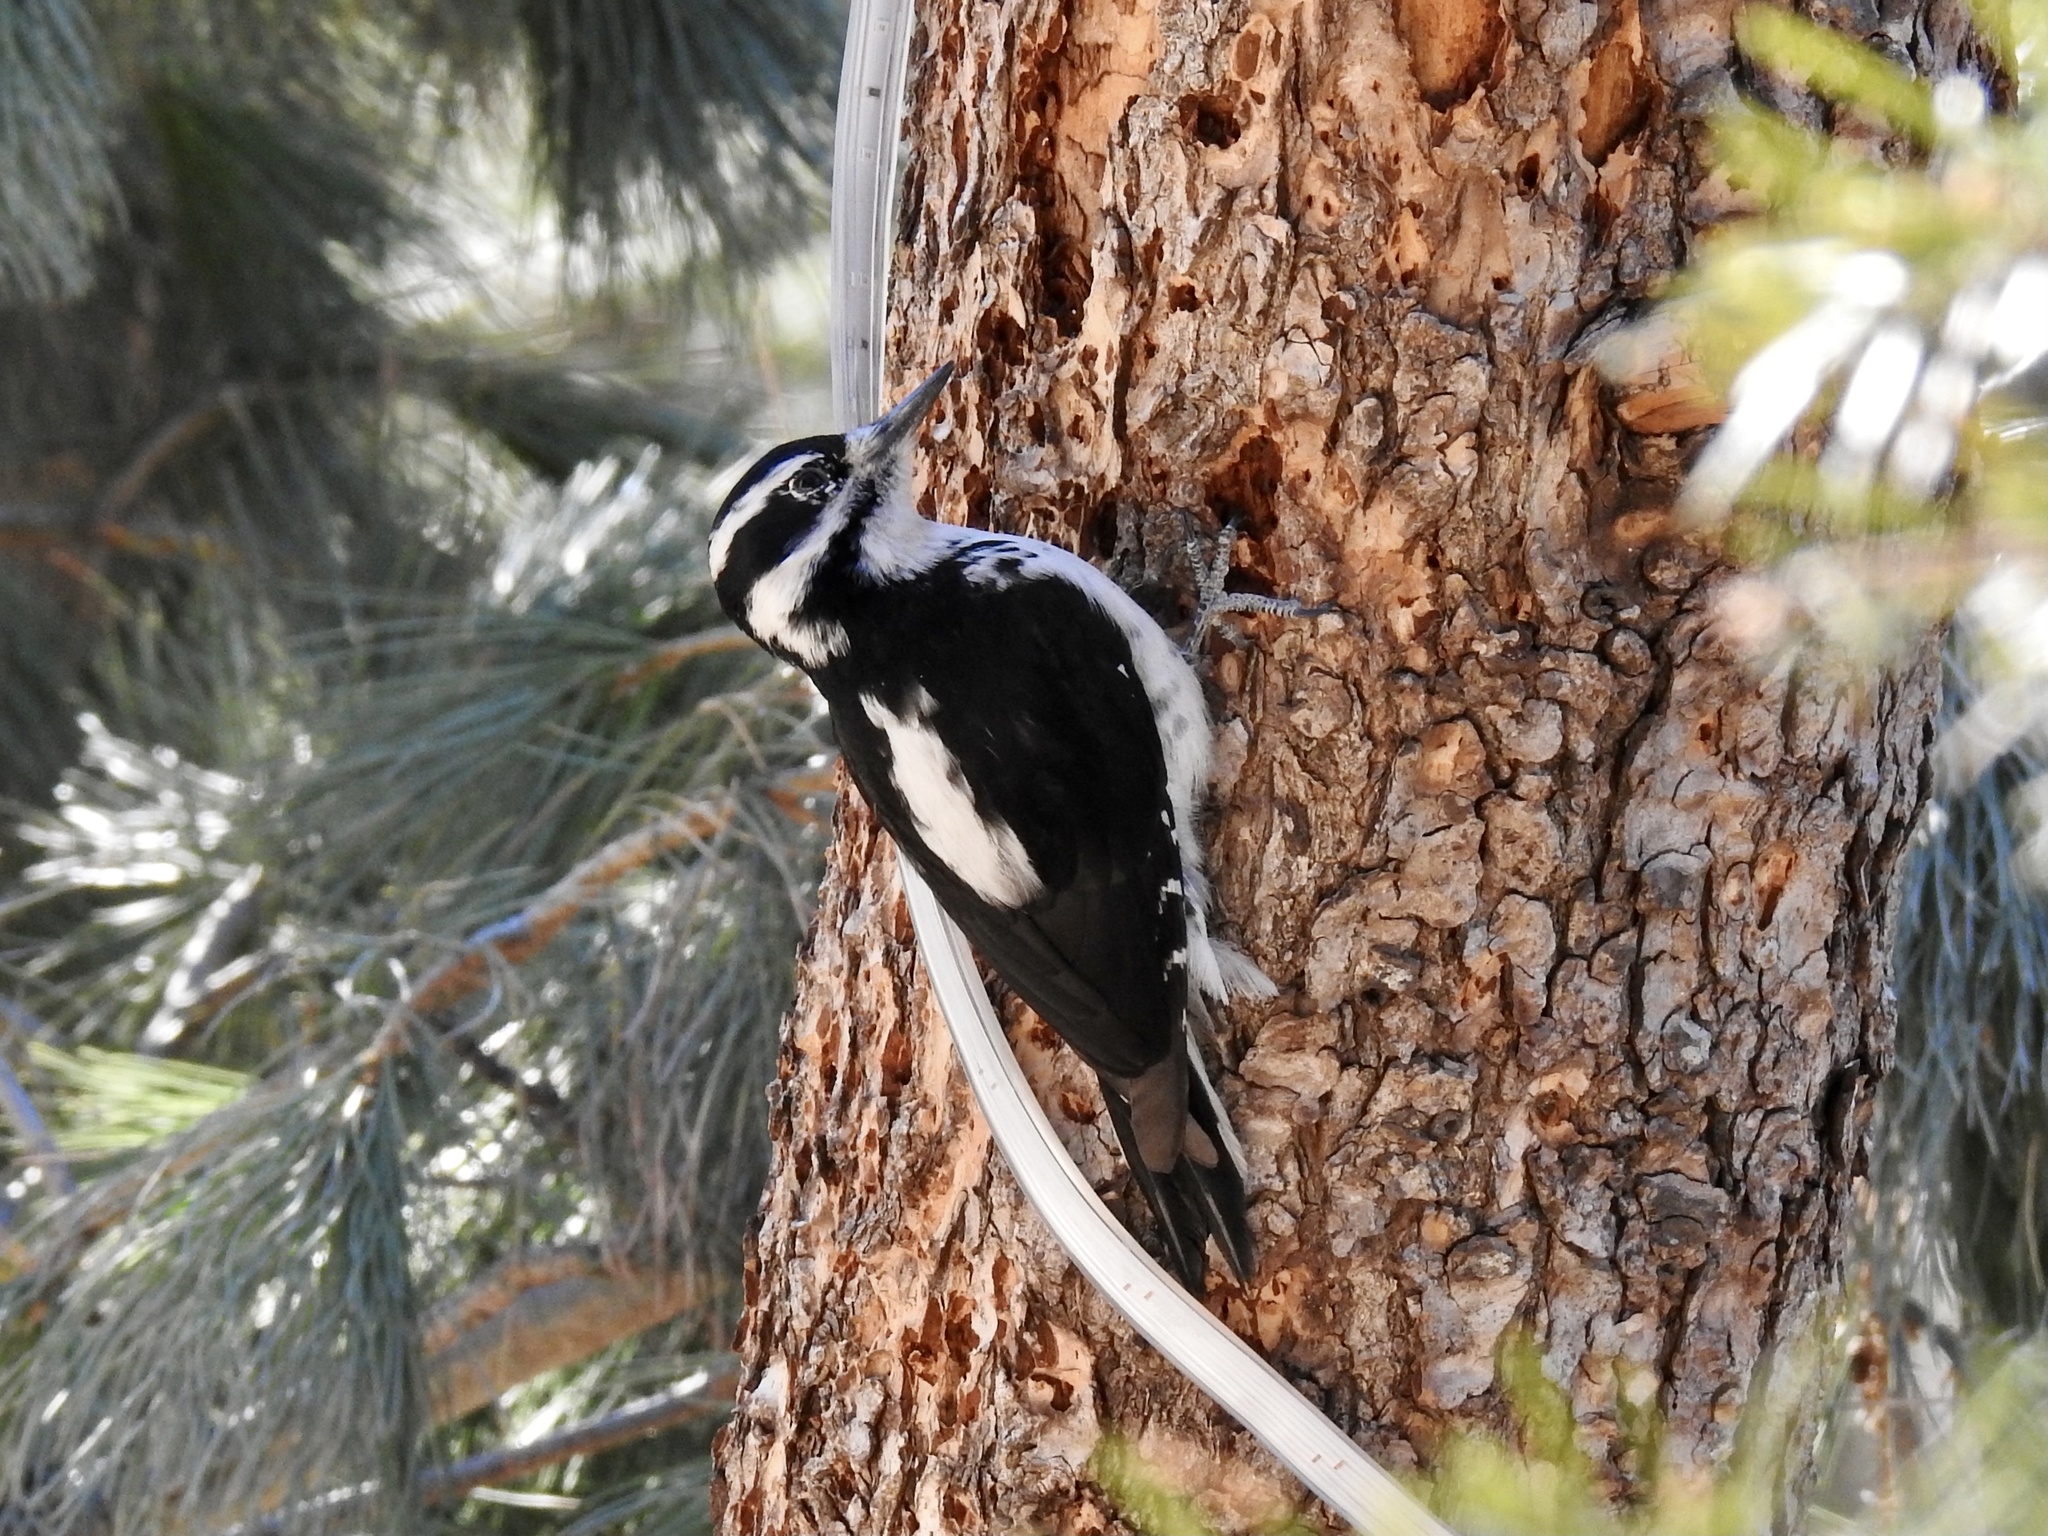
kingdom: Animalia
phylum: Chordata
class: Aves
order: Piciformes
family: Picidae
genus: Leuconotopicus
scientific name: Leuconotopicus villosus
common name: Hairy woodpecker
